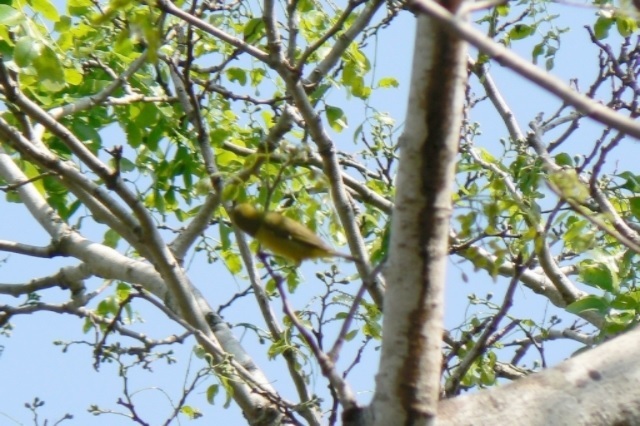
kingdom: Animalia
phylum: Chordata
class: Aves
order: Passeriformes
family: Zosteropidae
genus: Zosterops
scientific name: Zosterops anderssoni
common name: Southern yellow white-eye
